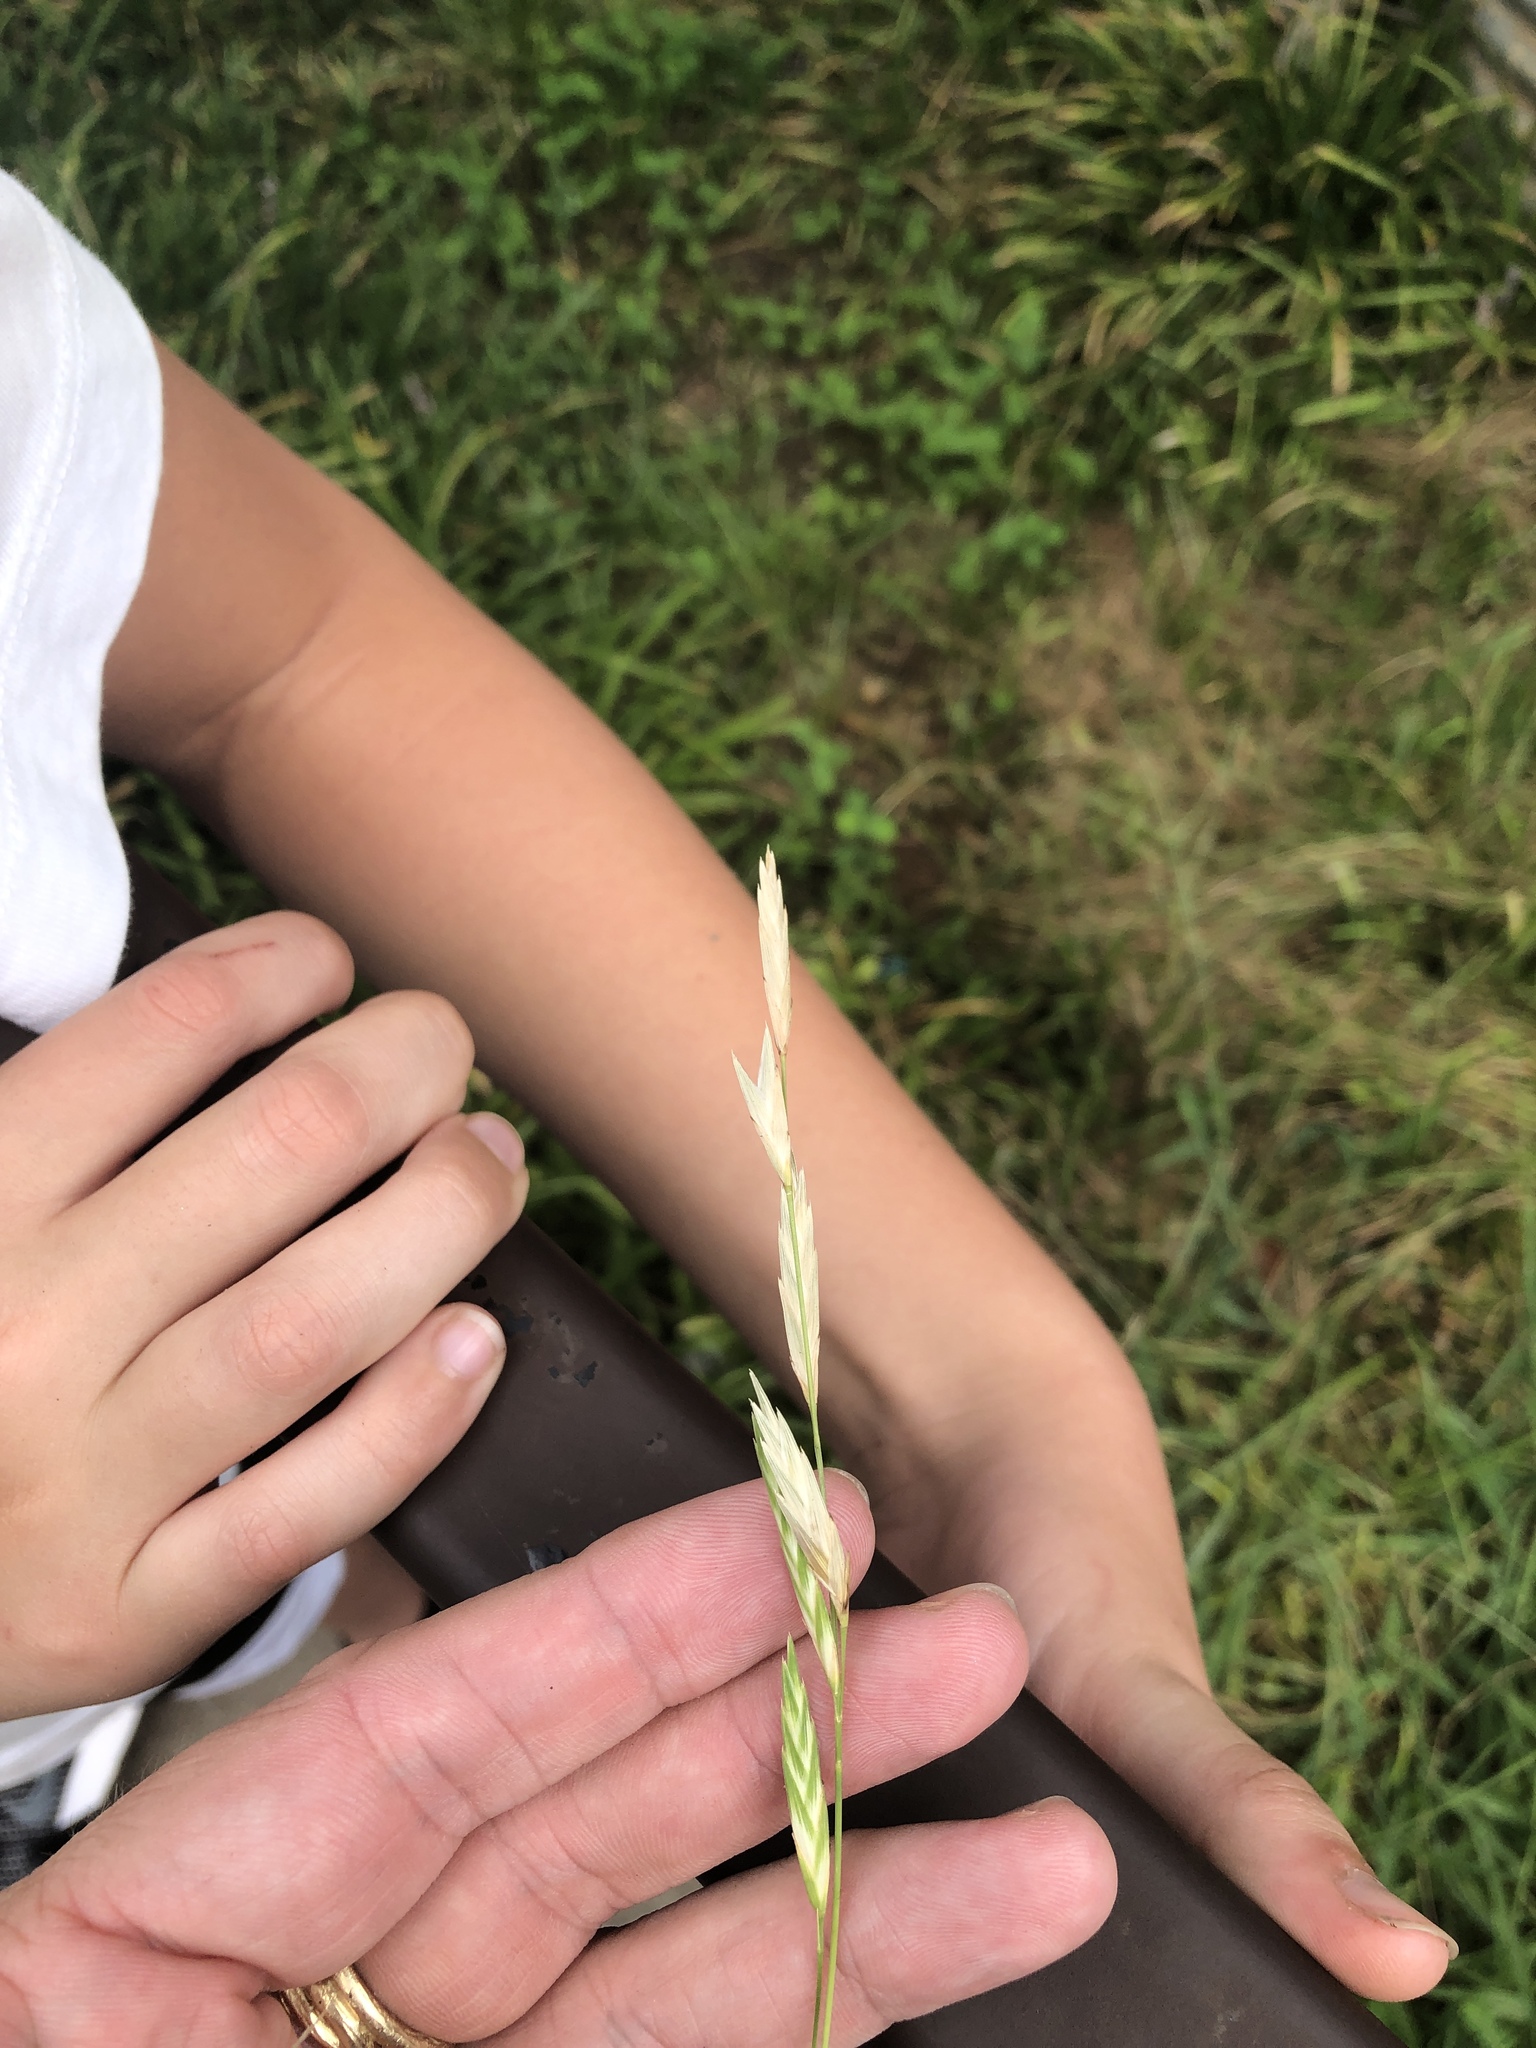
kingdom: Plantae
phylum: Tracheophyta
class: Liliopsida
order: Poales
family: Poaceae
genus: Bromus
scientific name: Bromus catharticus
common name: Rescuegrass
